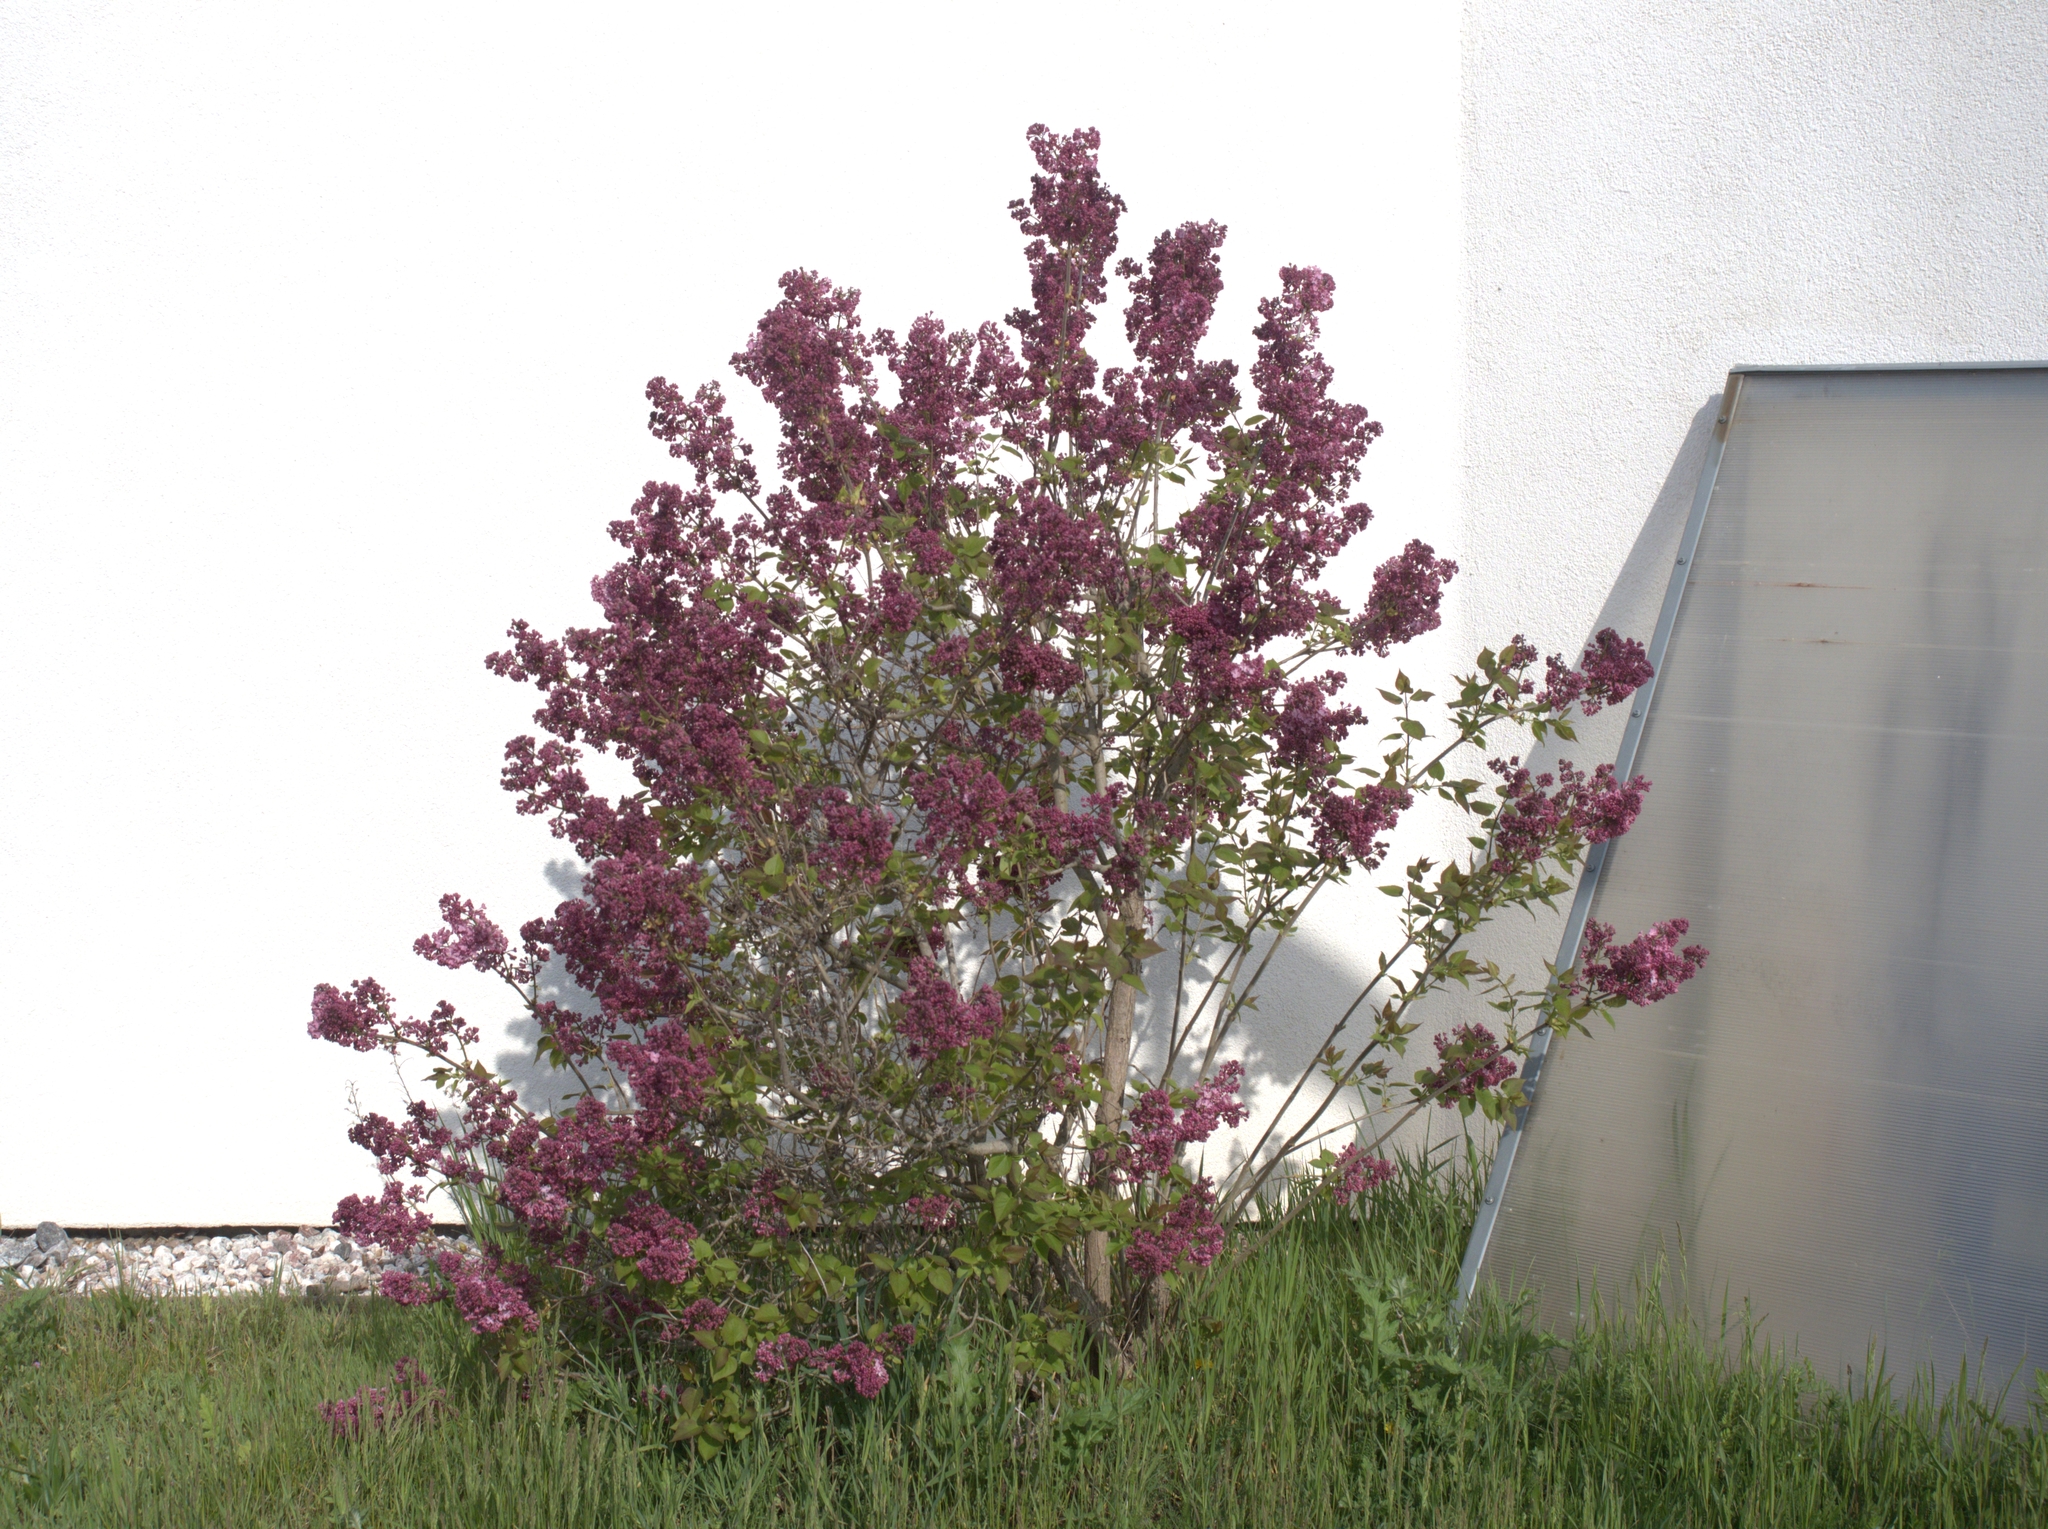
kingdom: Plantae
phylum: Tracheophyta
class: Magnoliopsida
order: Lamiales
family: Oleaceae
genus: Syringa
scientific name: Syringa vulgaris
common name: Common lilac
